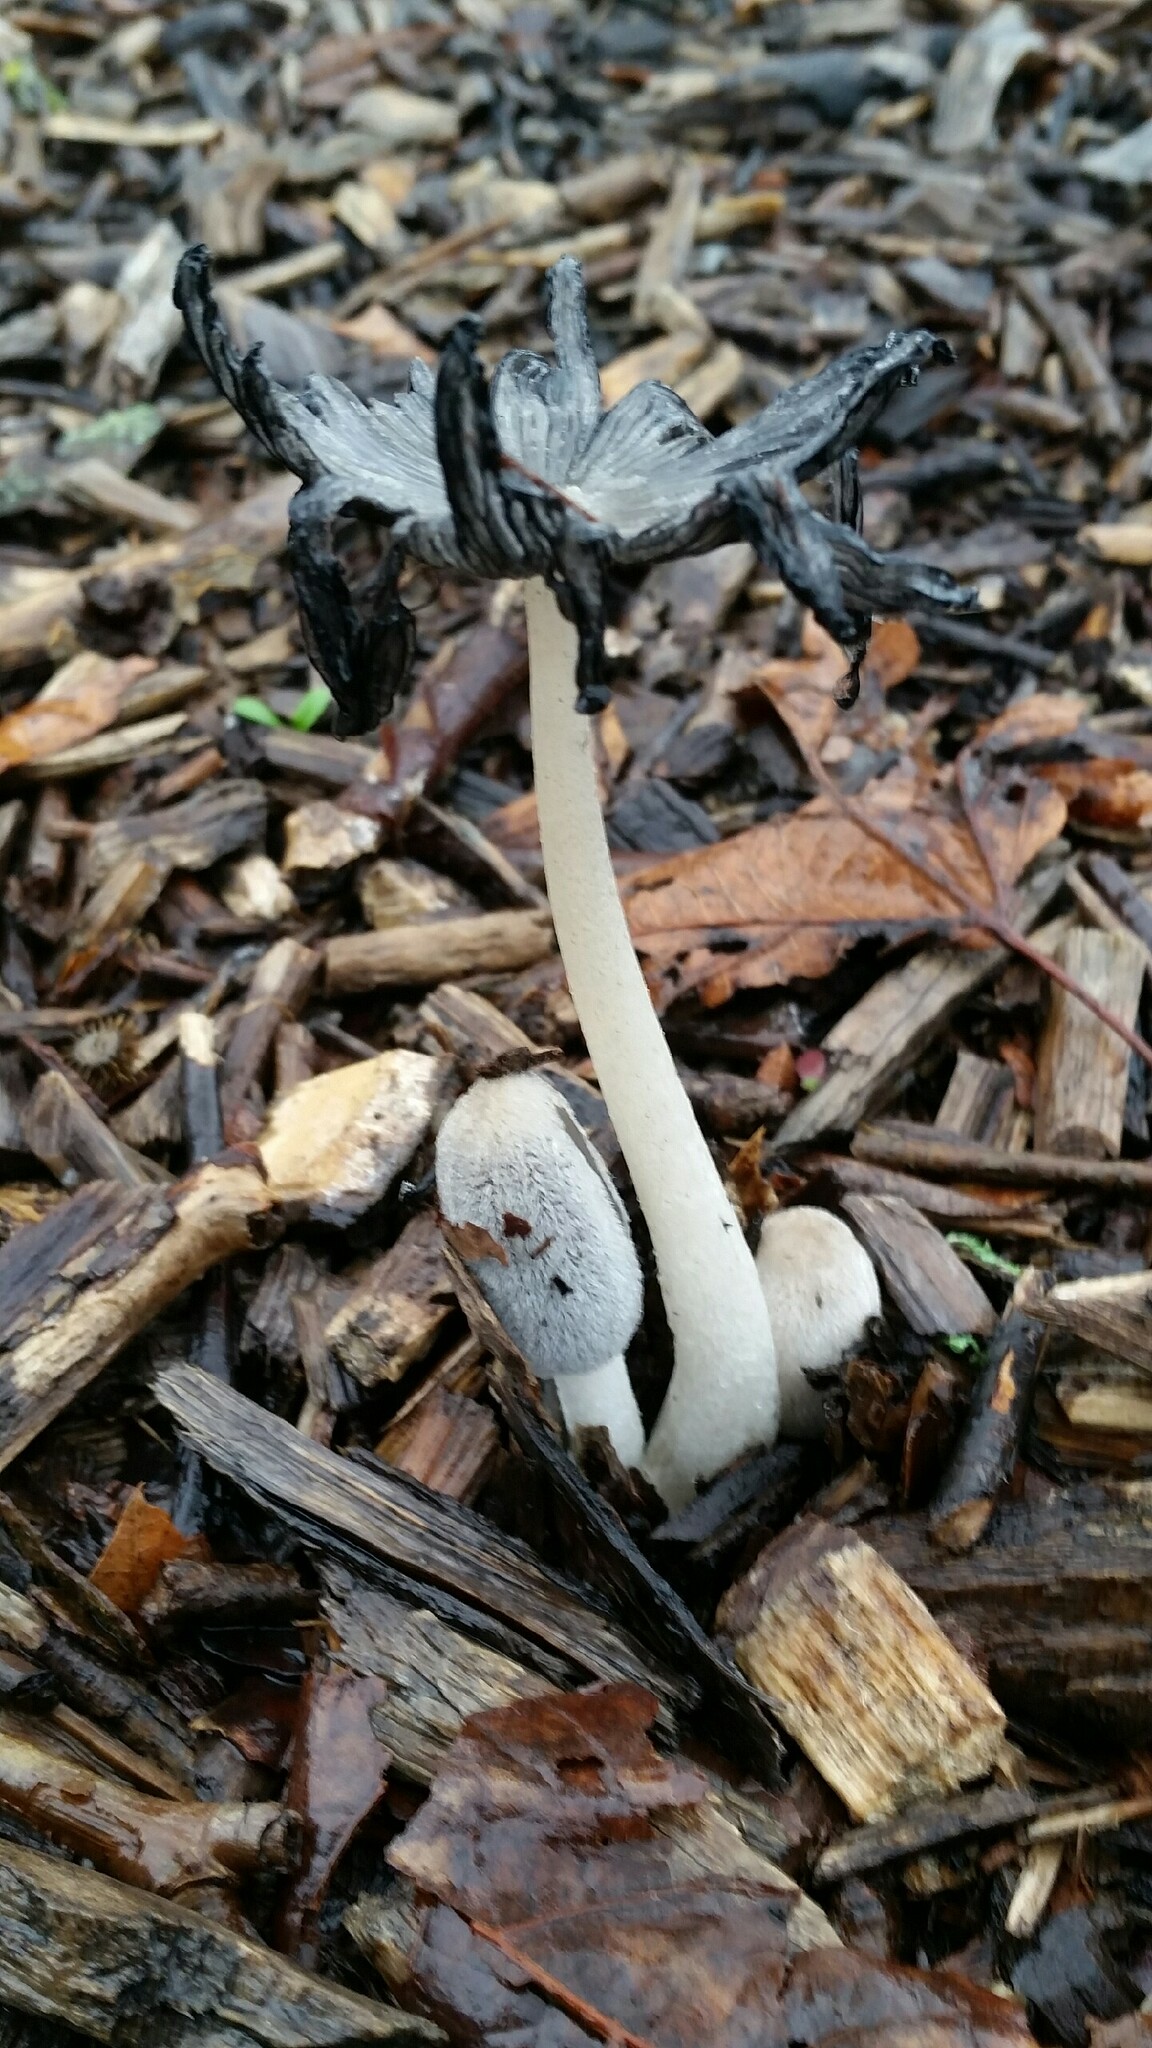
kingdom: Fungi
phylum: Basidiomycota
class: Agaricomycetes
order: Agaricales
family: Psathyrellaceae
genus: Coprinopsis
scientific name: Coprinopsis lagopus
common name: Hare'sfoot inkcap
